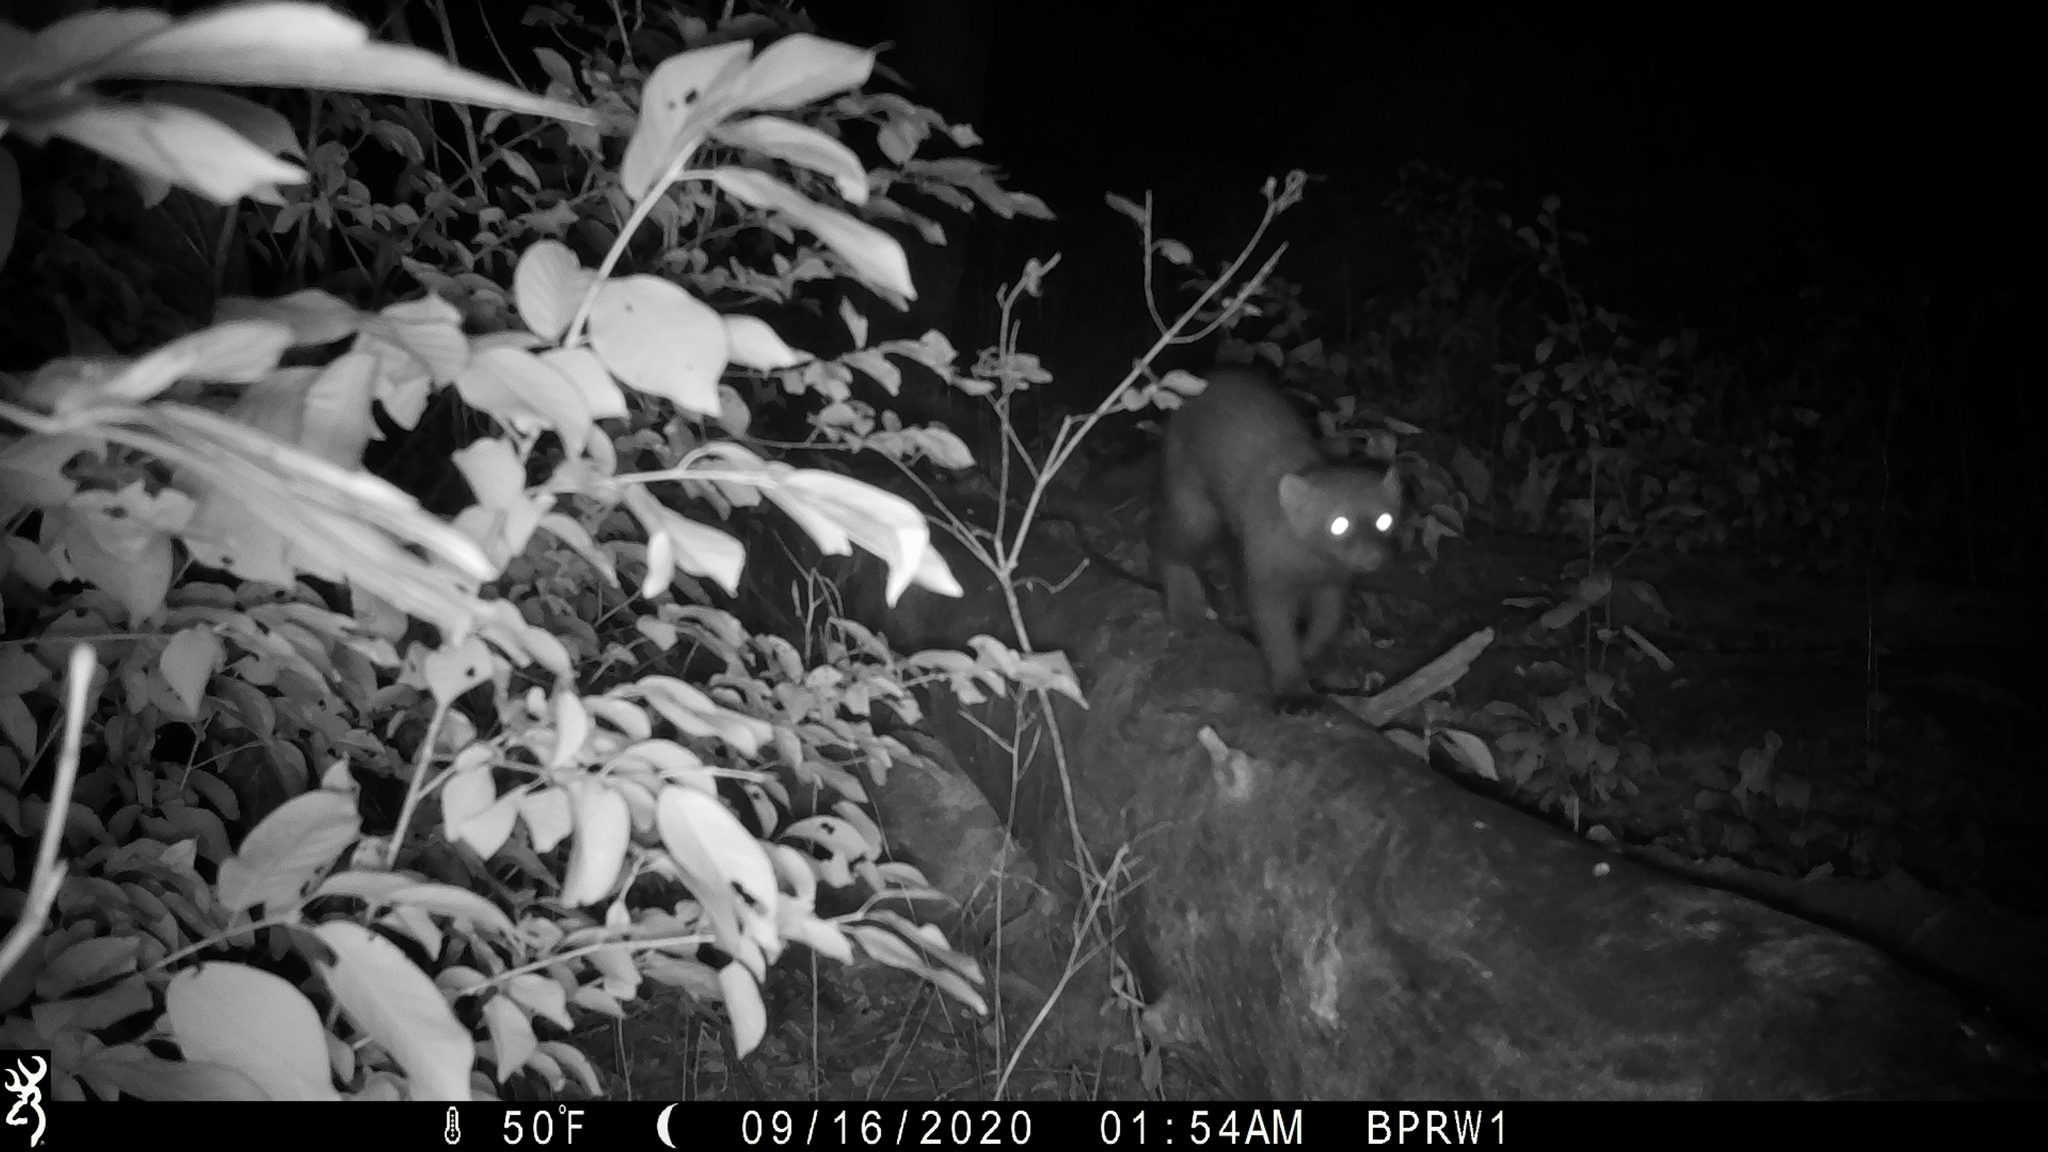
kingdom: Animalia
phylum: Chordata
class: Mammalia
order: Carnivora
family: Mustelidae
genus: Pekania
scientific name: Pekania pennanti
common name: Fisher
